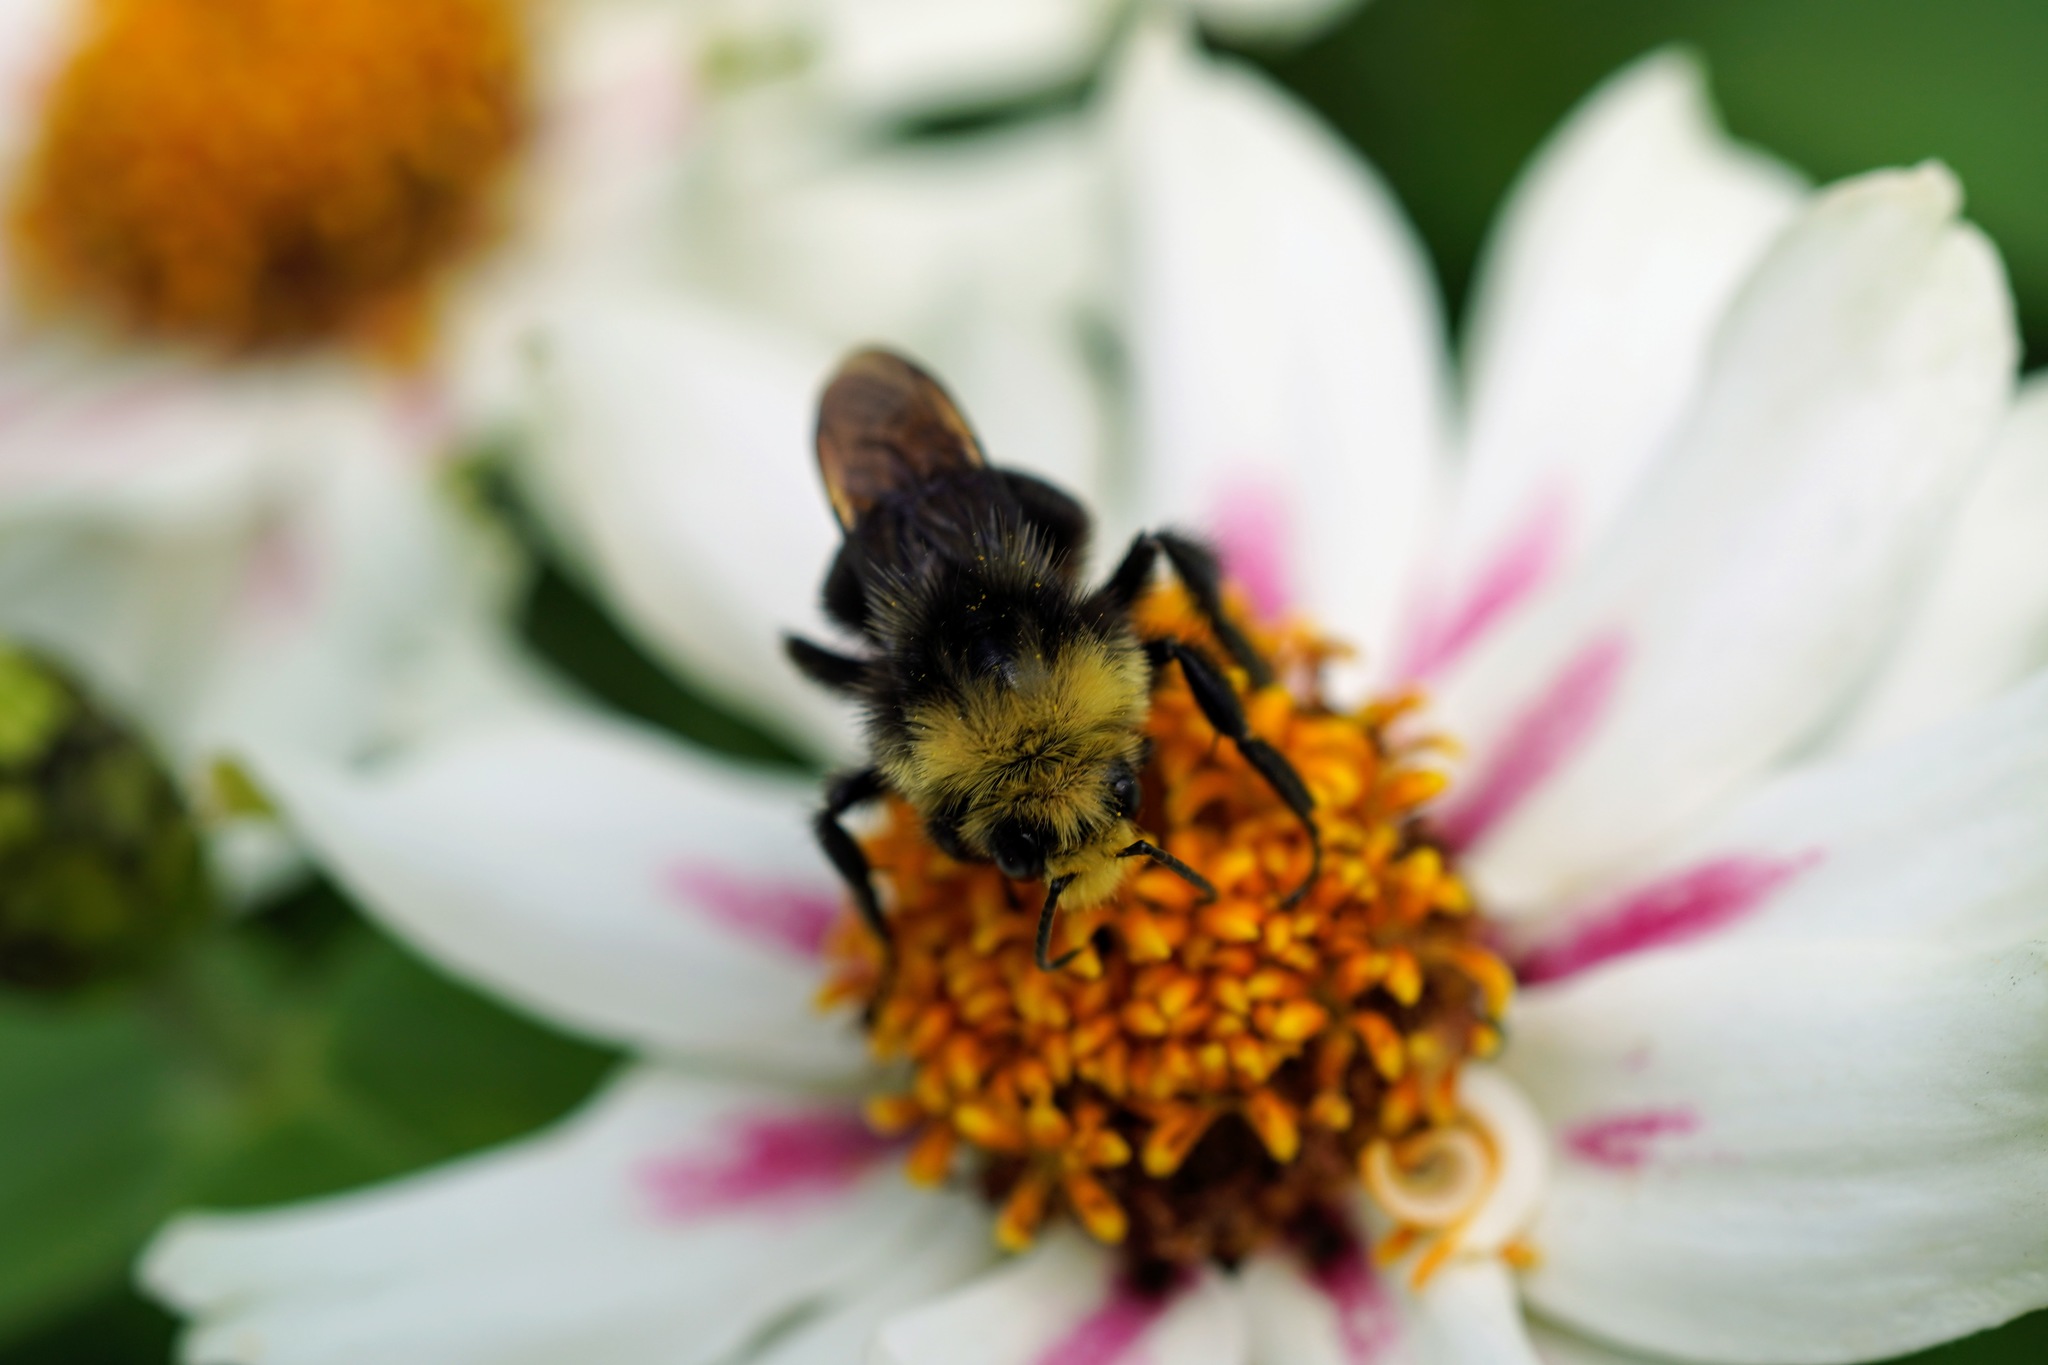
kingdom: Animalia
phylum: Arthropoda
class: Insecta
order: Hymenoptera
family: Apidae
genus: Bombus
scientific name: Bombus vosnesenskii
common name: Vosnesensky bumble bee
